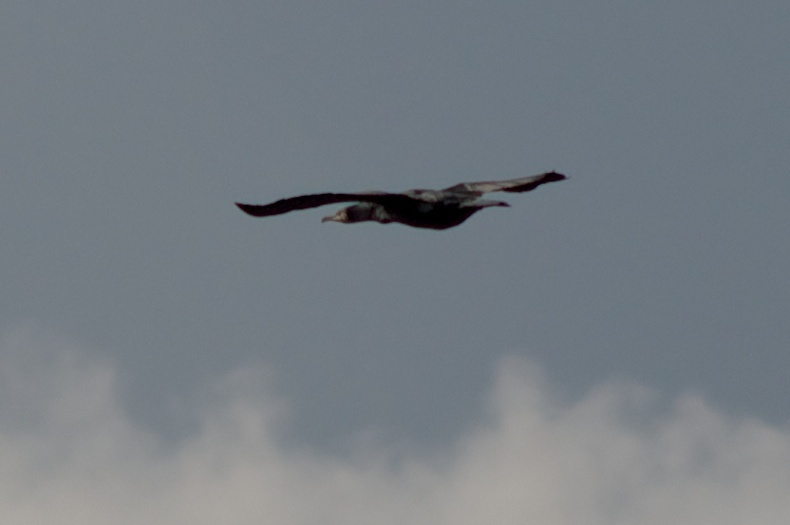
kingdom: Animalia
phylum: Chordata
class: Aves
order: Suliformes
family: Phalacrocoracidae
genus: Phalacrocorax
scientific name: Phalacrocorax carbo
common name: Great cormorant
